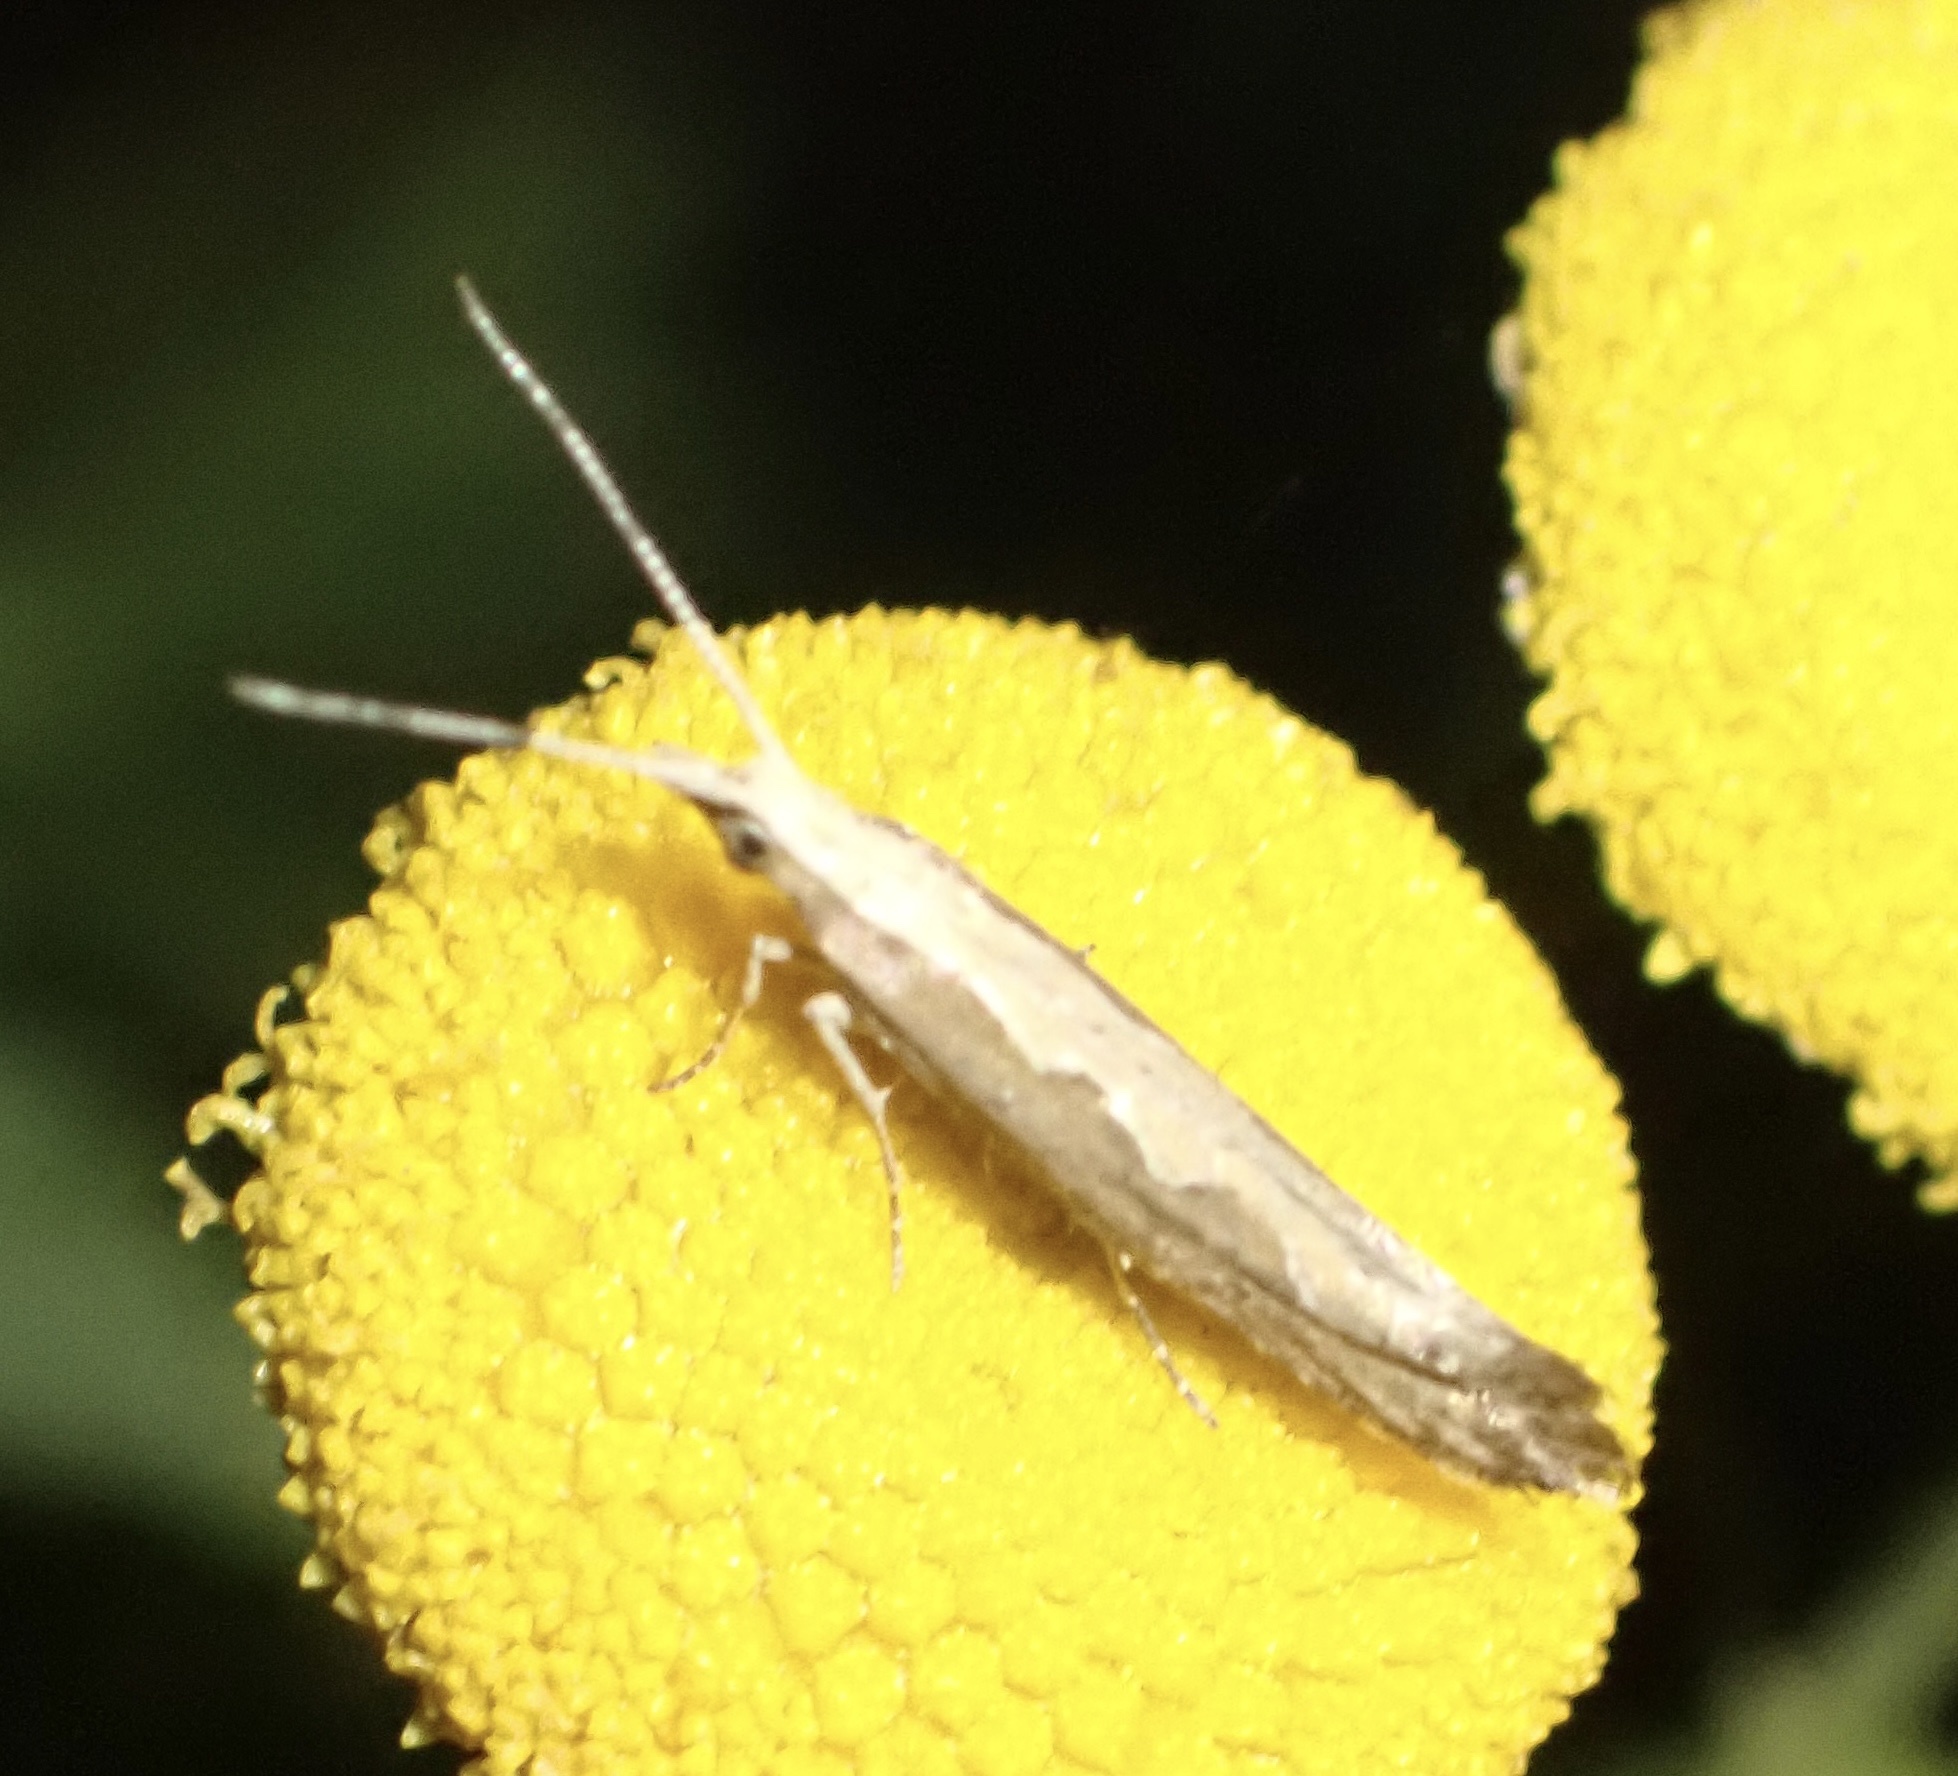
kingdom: Animalia
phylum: Arthropoda
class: Insecta
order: Lepidoptera
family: Plutellidae
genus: Plutella
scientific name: Plutella xylostella
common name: Diamond-back moth
